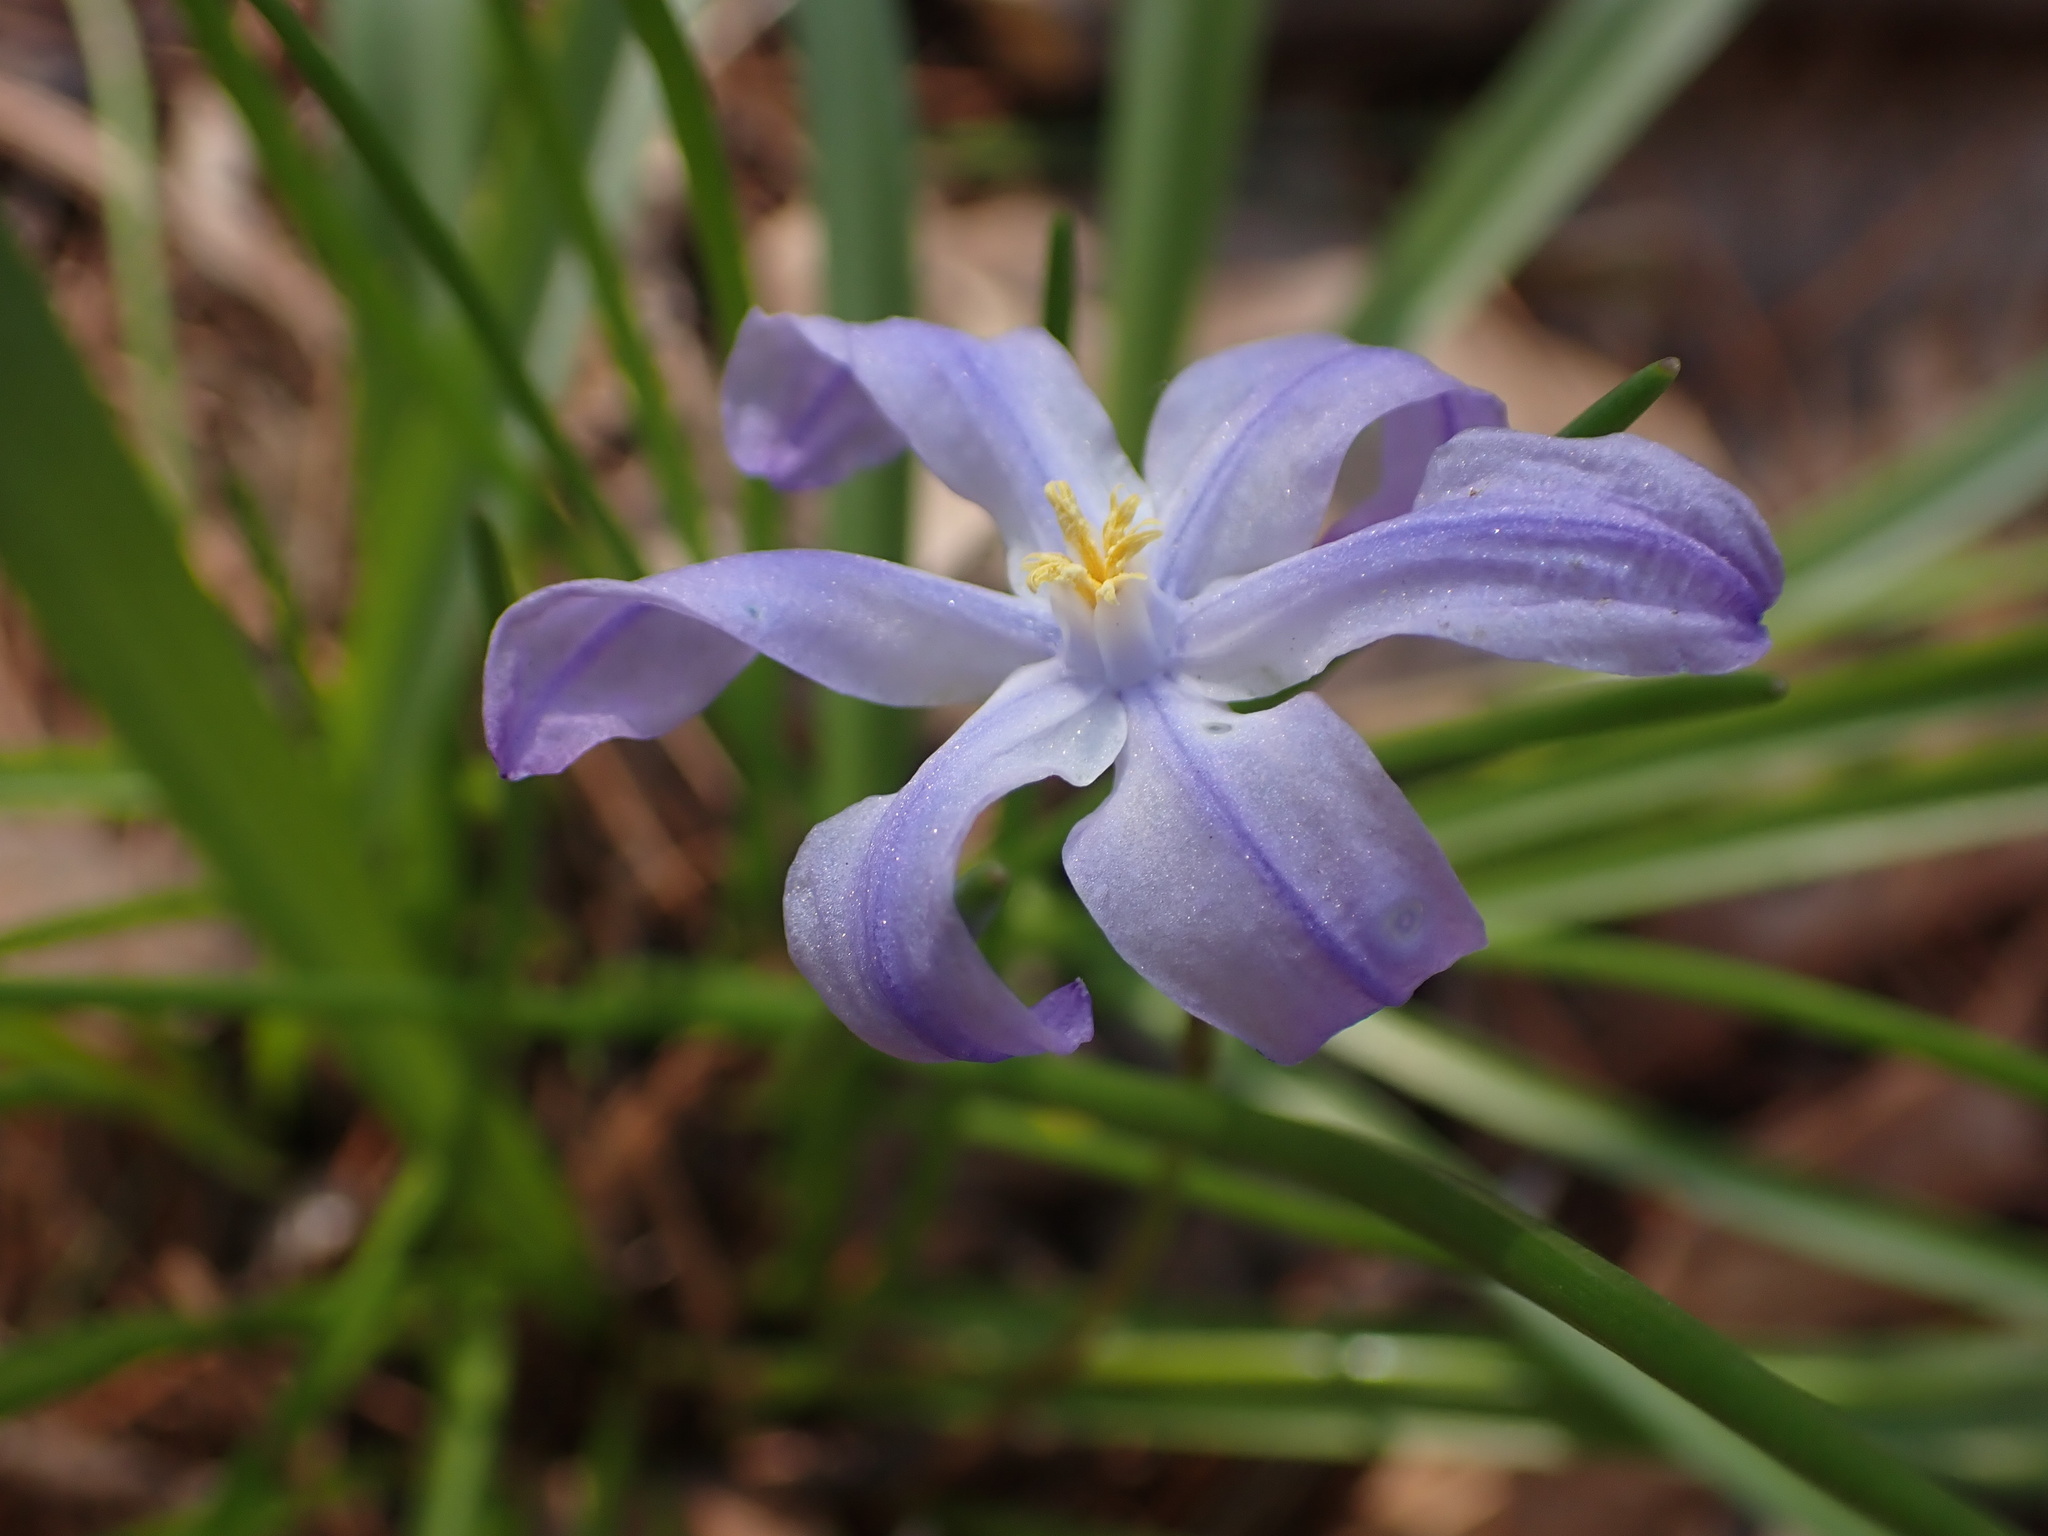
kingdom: Plantae
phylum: Tracheophyta
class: Liliopsida
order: Asparagales
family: Asparagaceae
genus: Scilla
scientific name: Scilla luciliae
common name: Boissier's glory-of-the-snow
